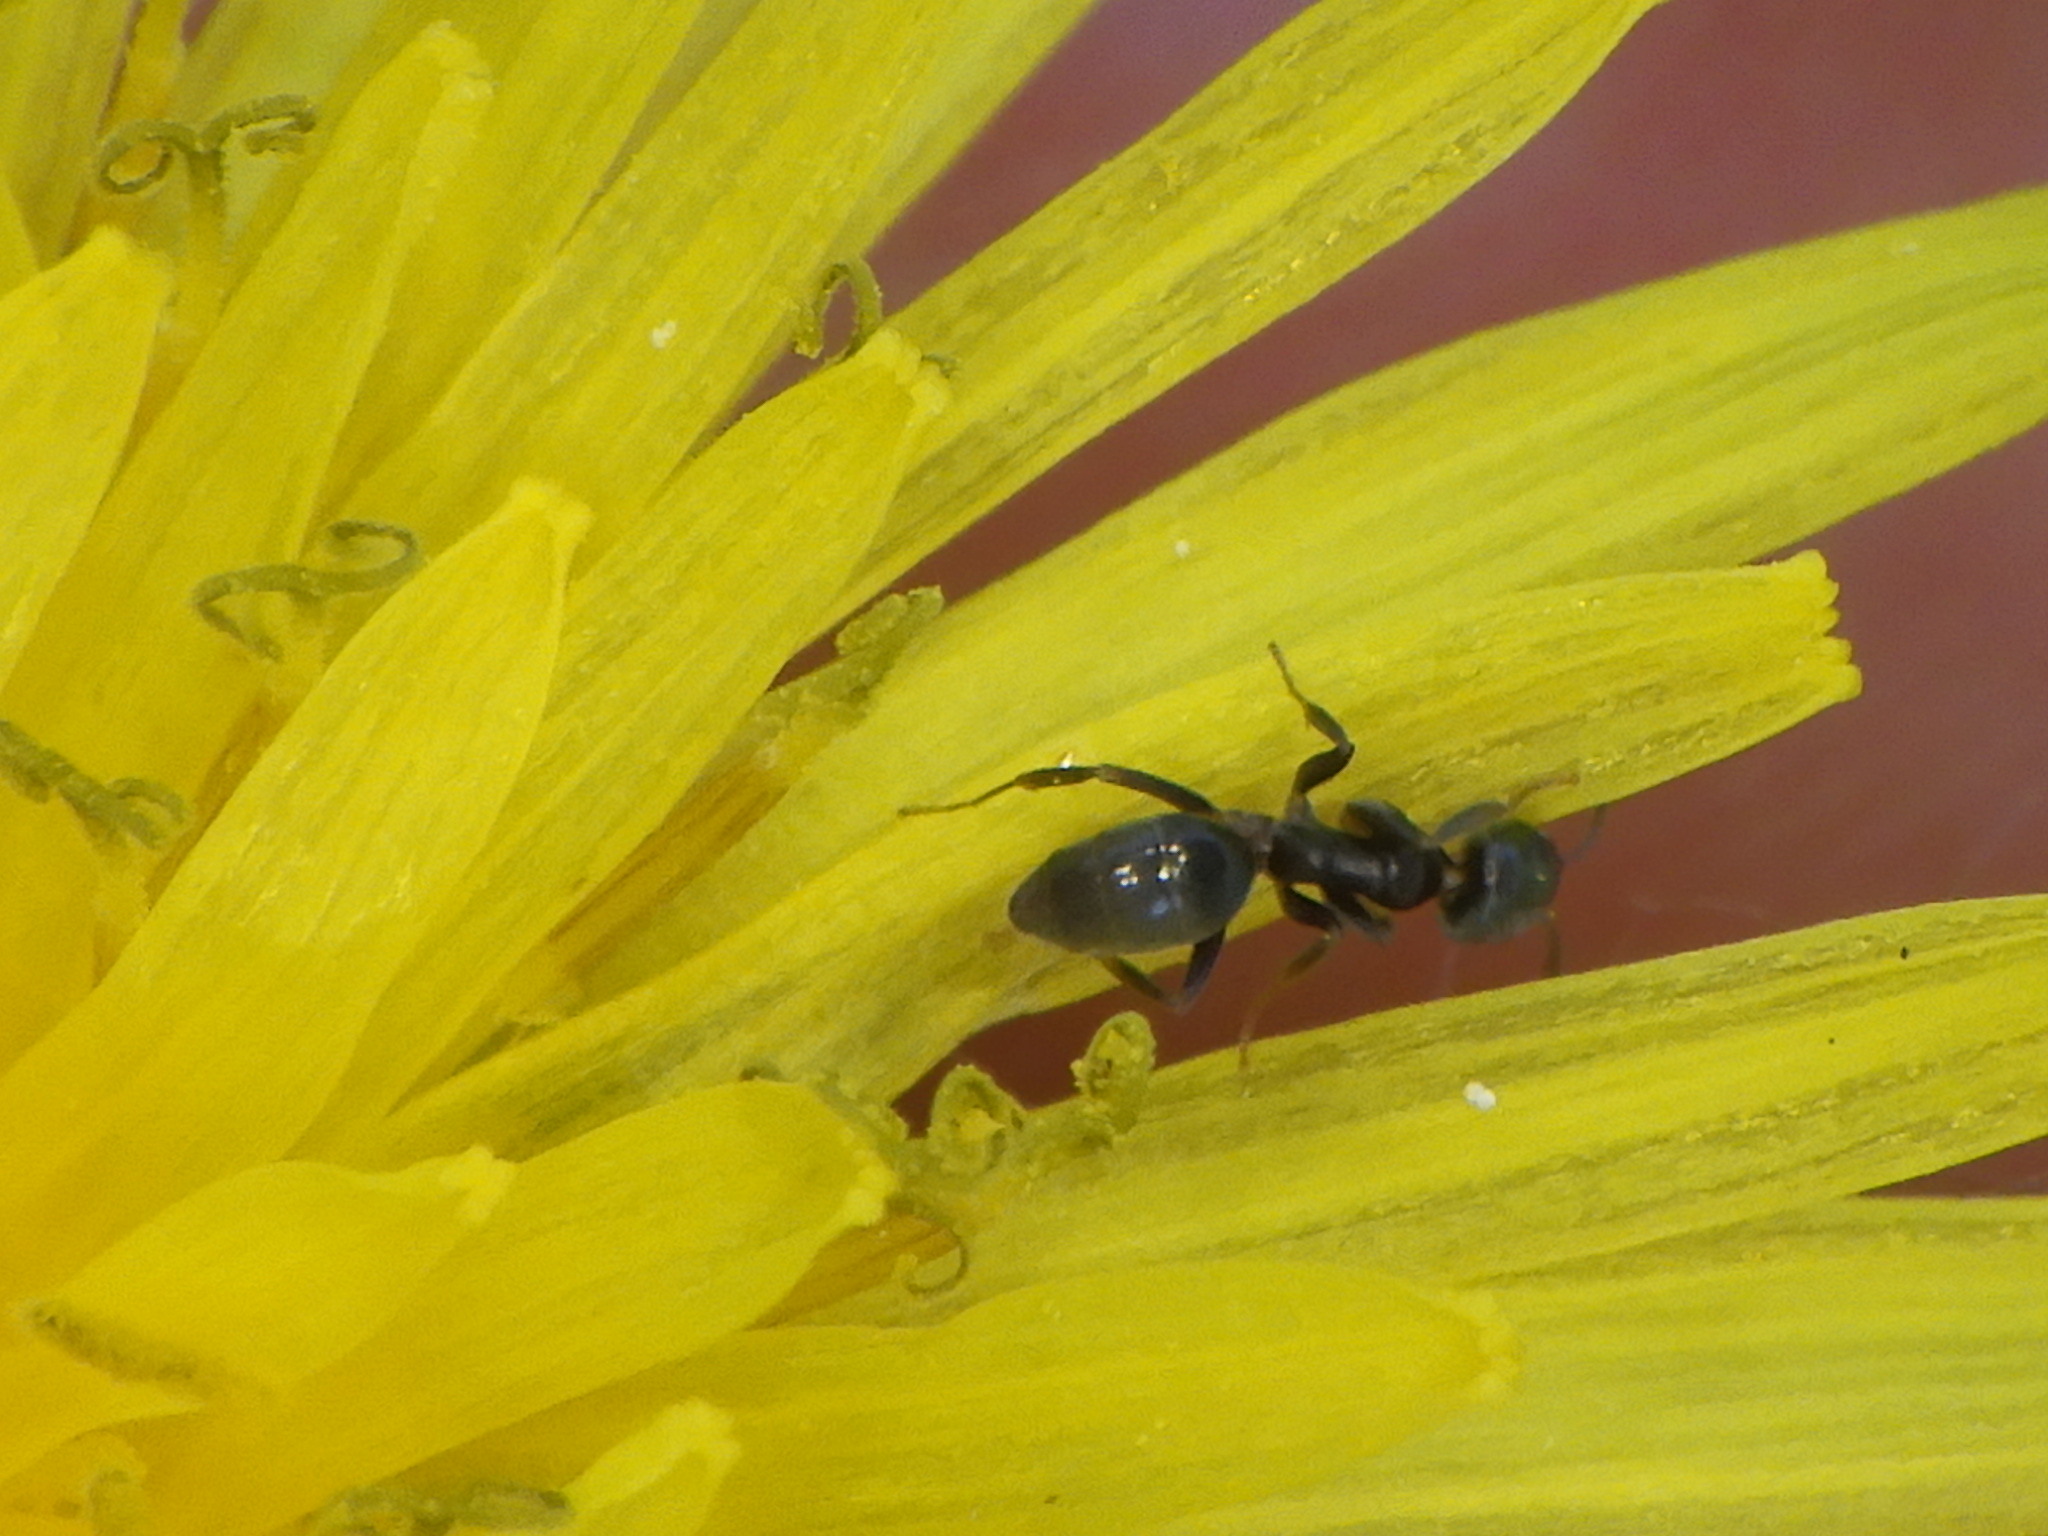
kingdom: Animalia
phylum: Arthropoda
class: Insecta
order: Hymenoptera
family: Formicidae
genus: Tapinoma
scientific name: Tapinoma sessile
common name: Odorous house ant
